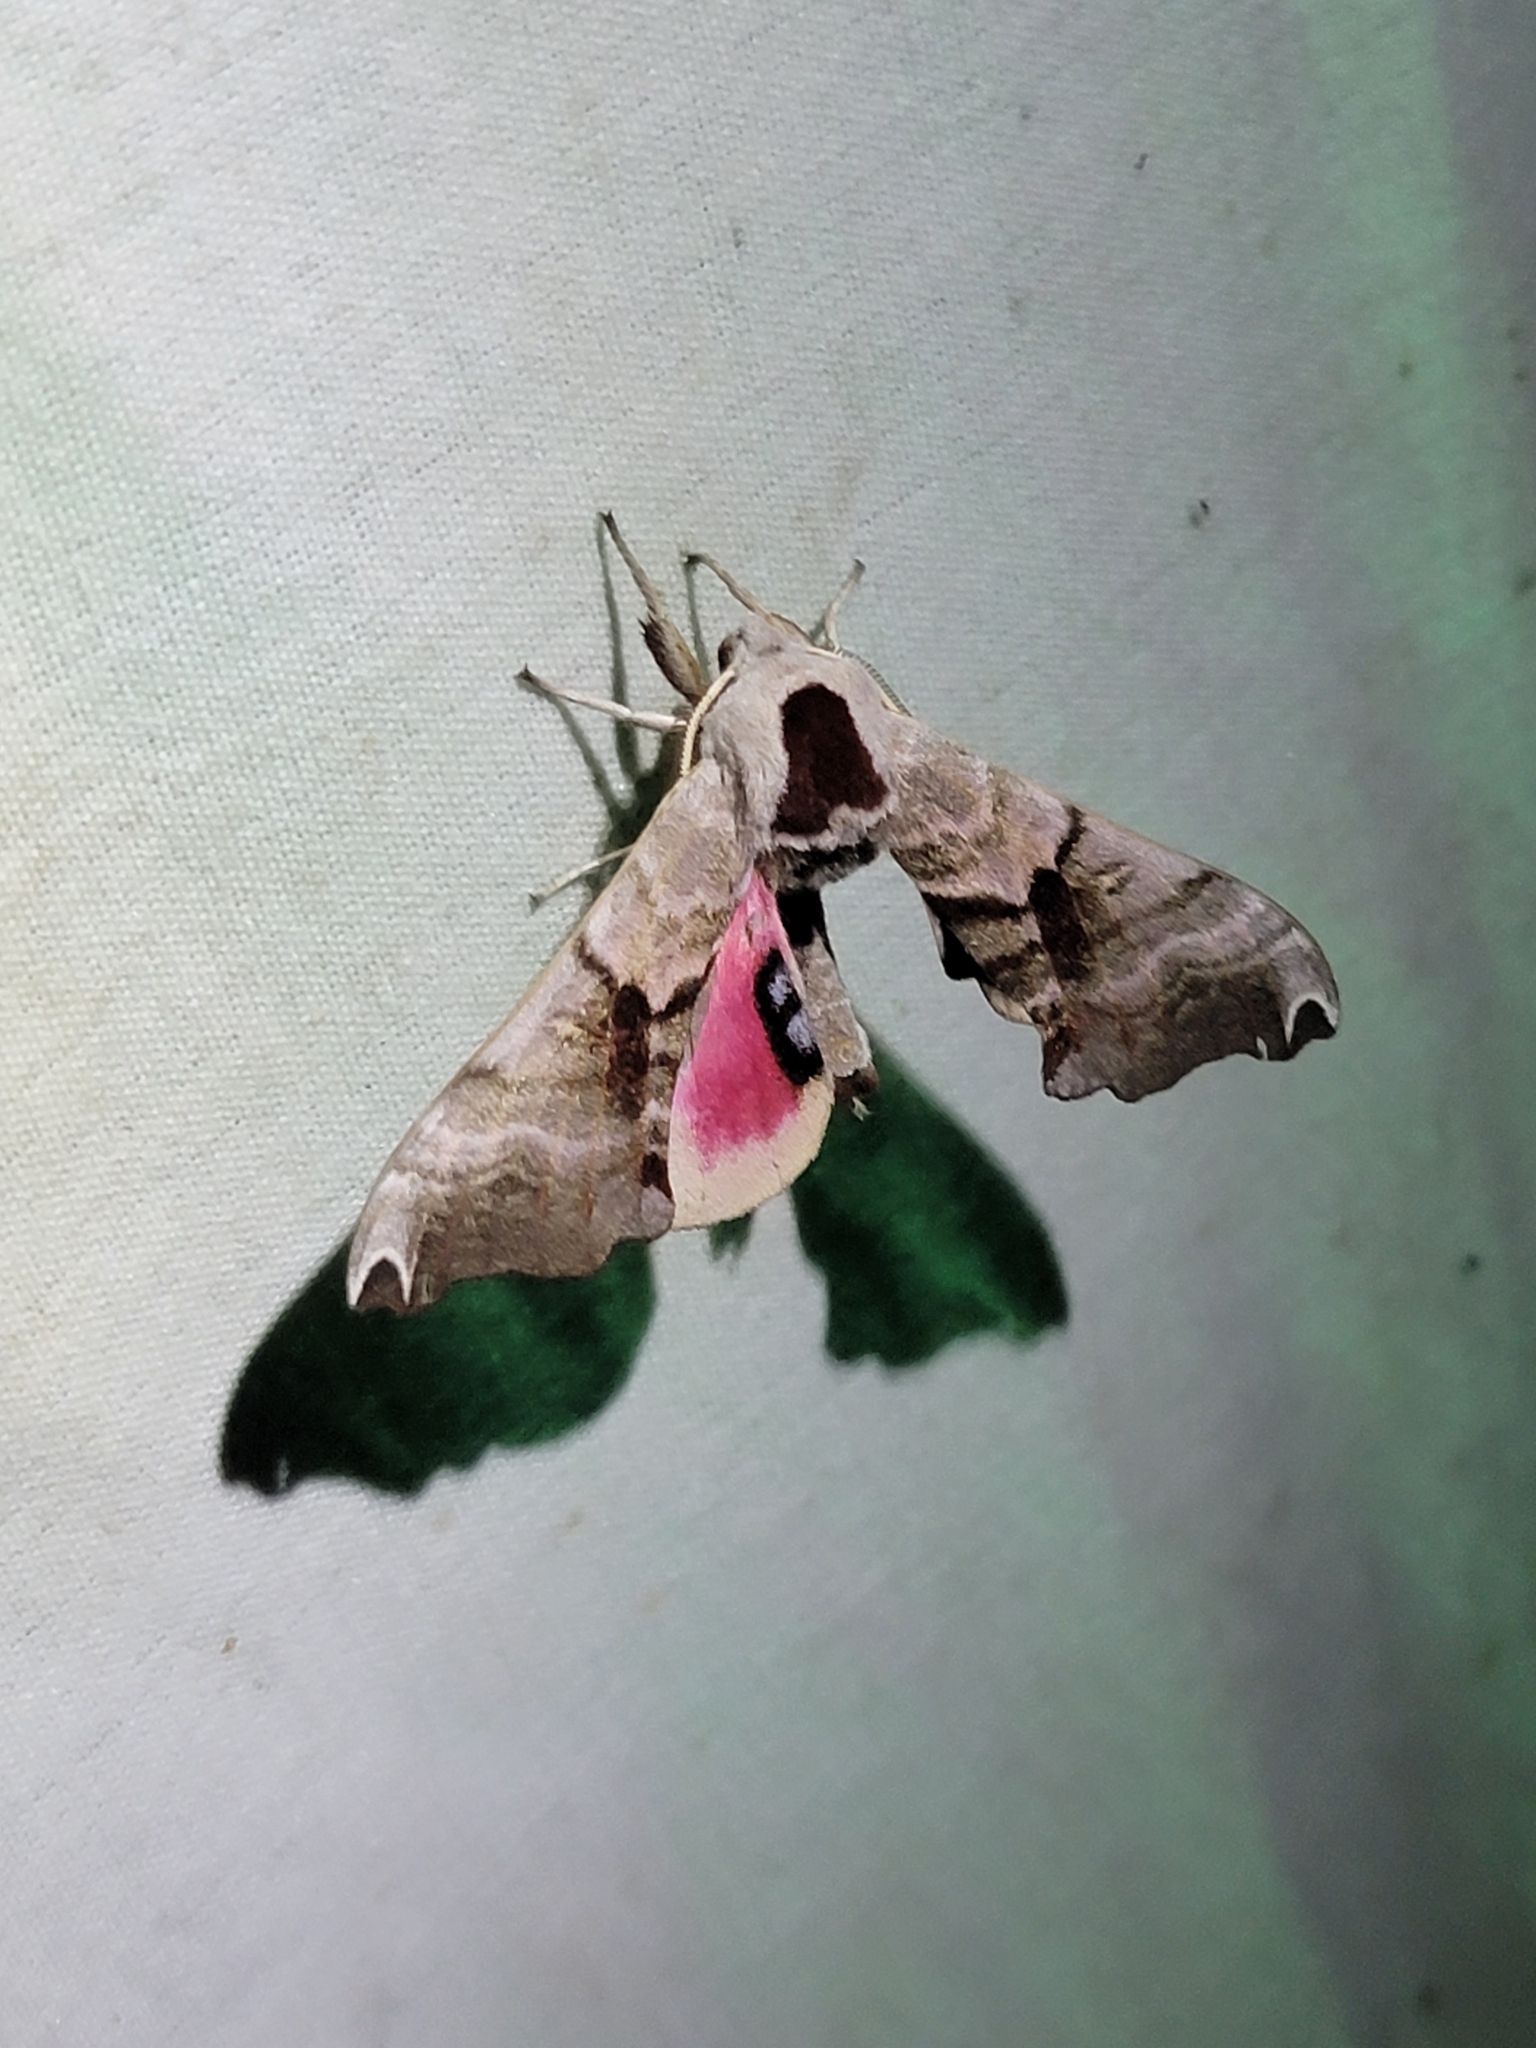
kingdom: Animalia
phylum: Arthropoda
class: Insecta
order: Lepidoptera
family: Sphingidae
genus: Smerinthus
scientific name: Smerinthus jamaicensis
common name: Twin spotted sphinx
